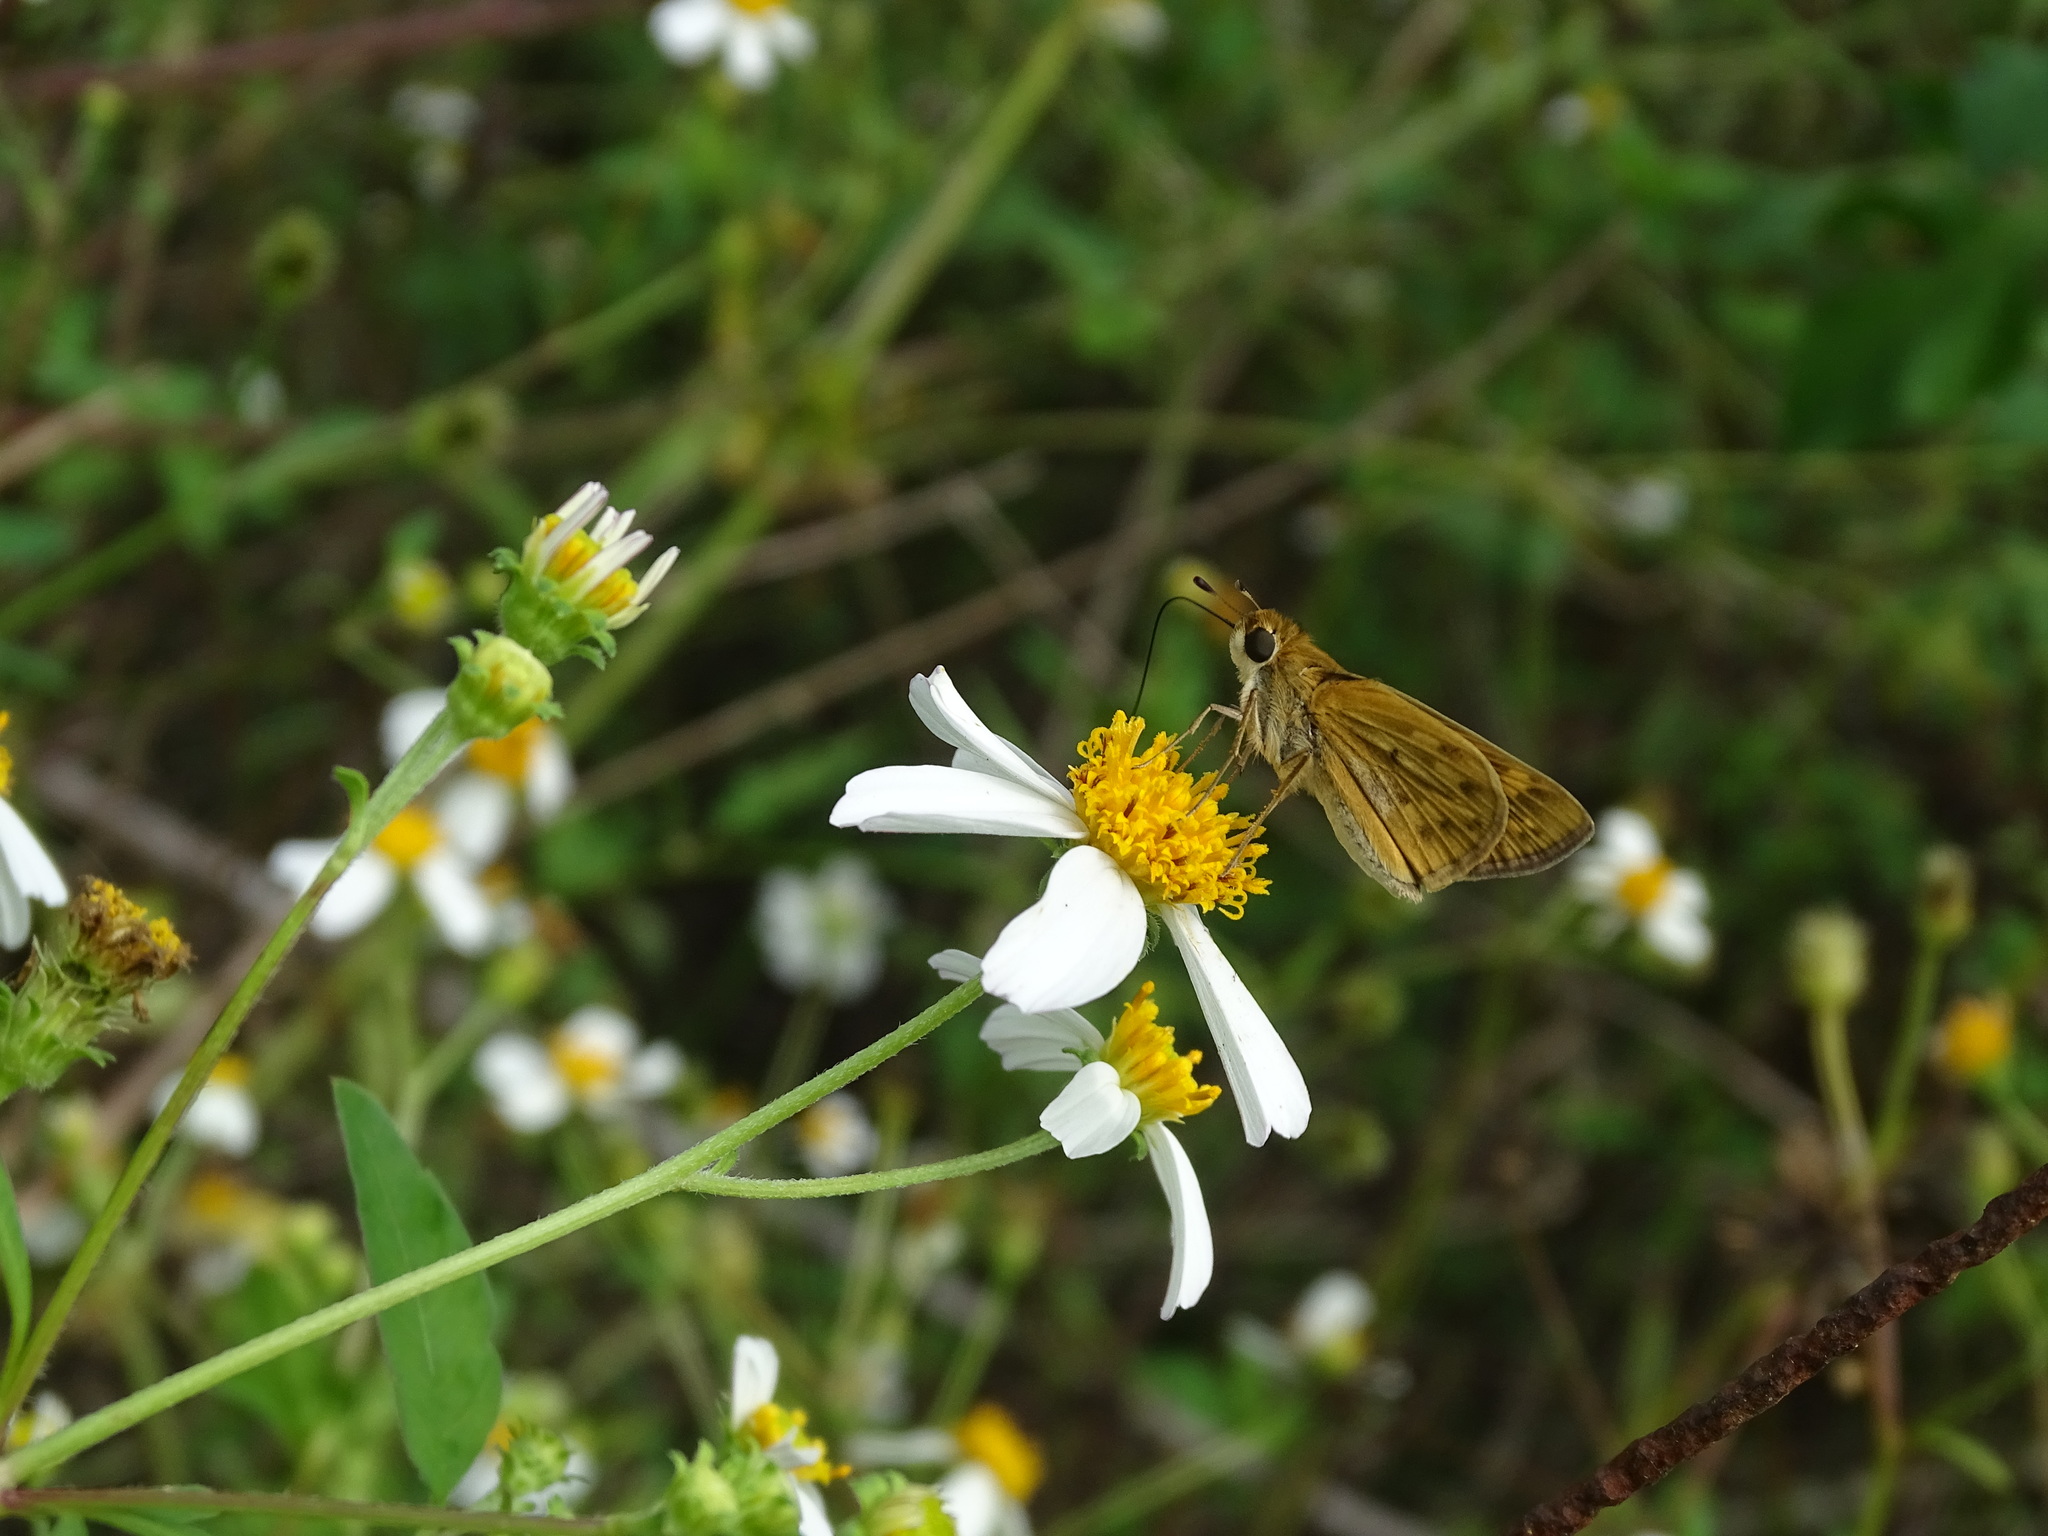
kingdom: Animalia
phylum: Arthropoda
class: Insecta
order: Lepidoptera
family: Hesperiidae
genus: Hylephila
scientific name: Hylephila phyleus
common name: Fiery skipper
